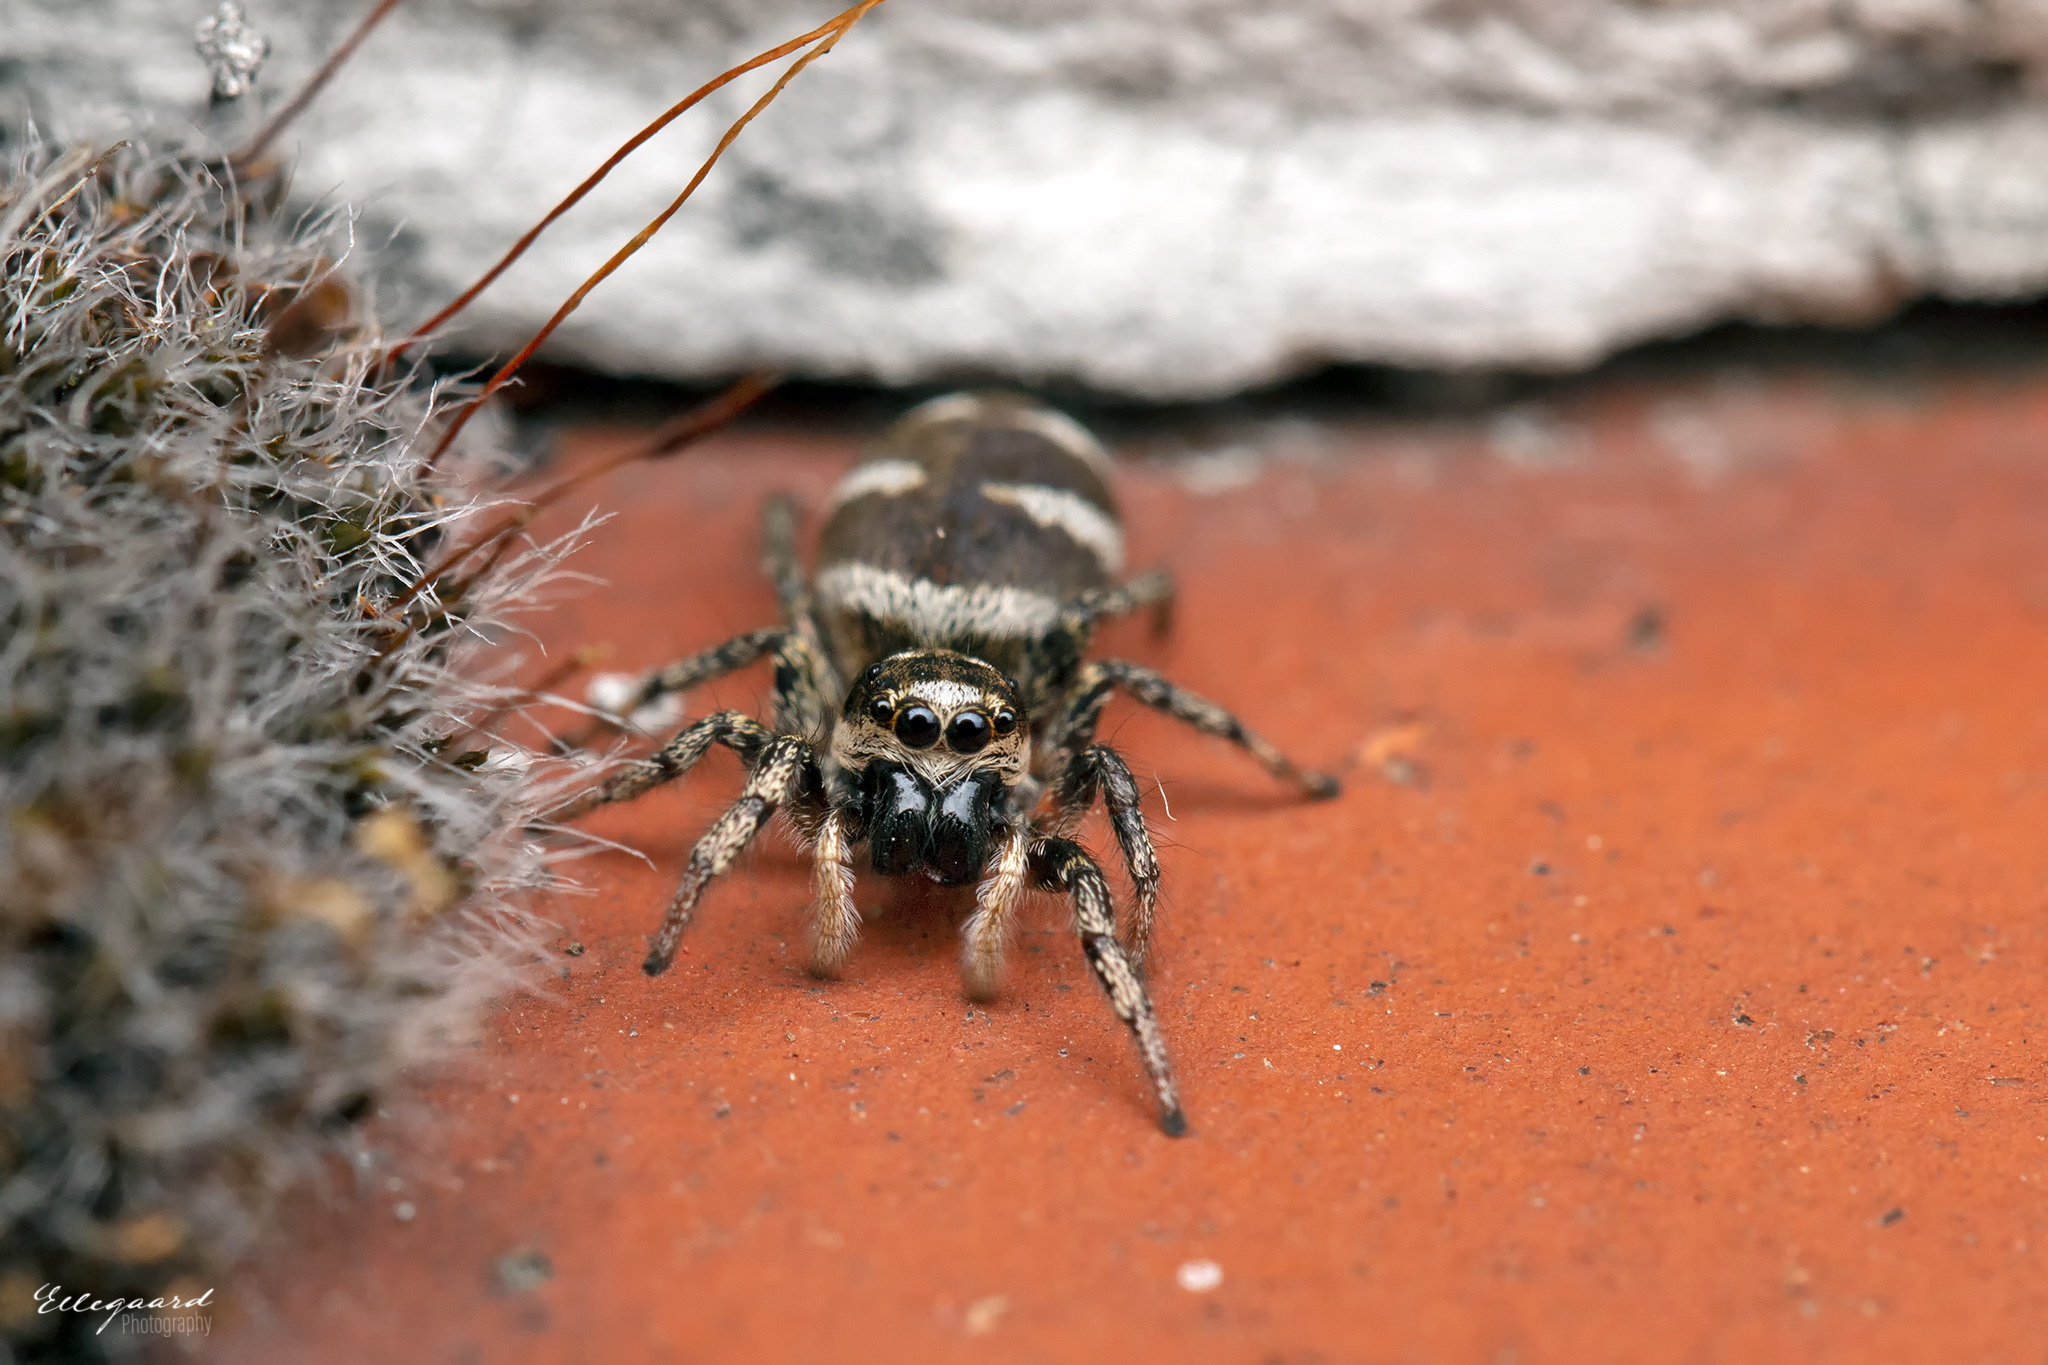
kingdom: Animalia
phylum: Arthropoda
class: Arachnida
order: Araneae
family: Salticidae
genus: Salticus
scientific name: Salticus scenicus
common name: Zebra jumper
